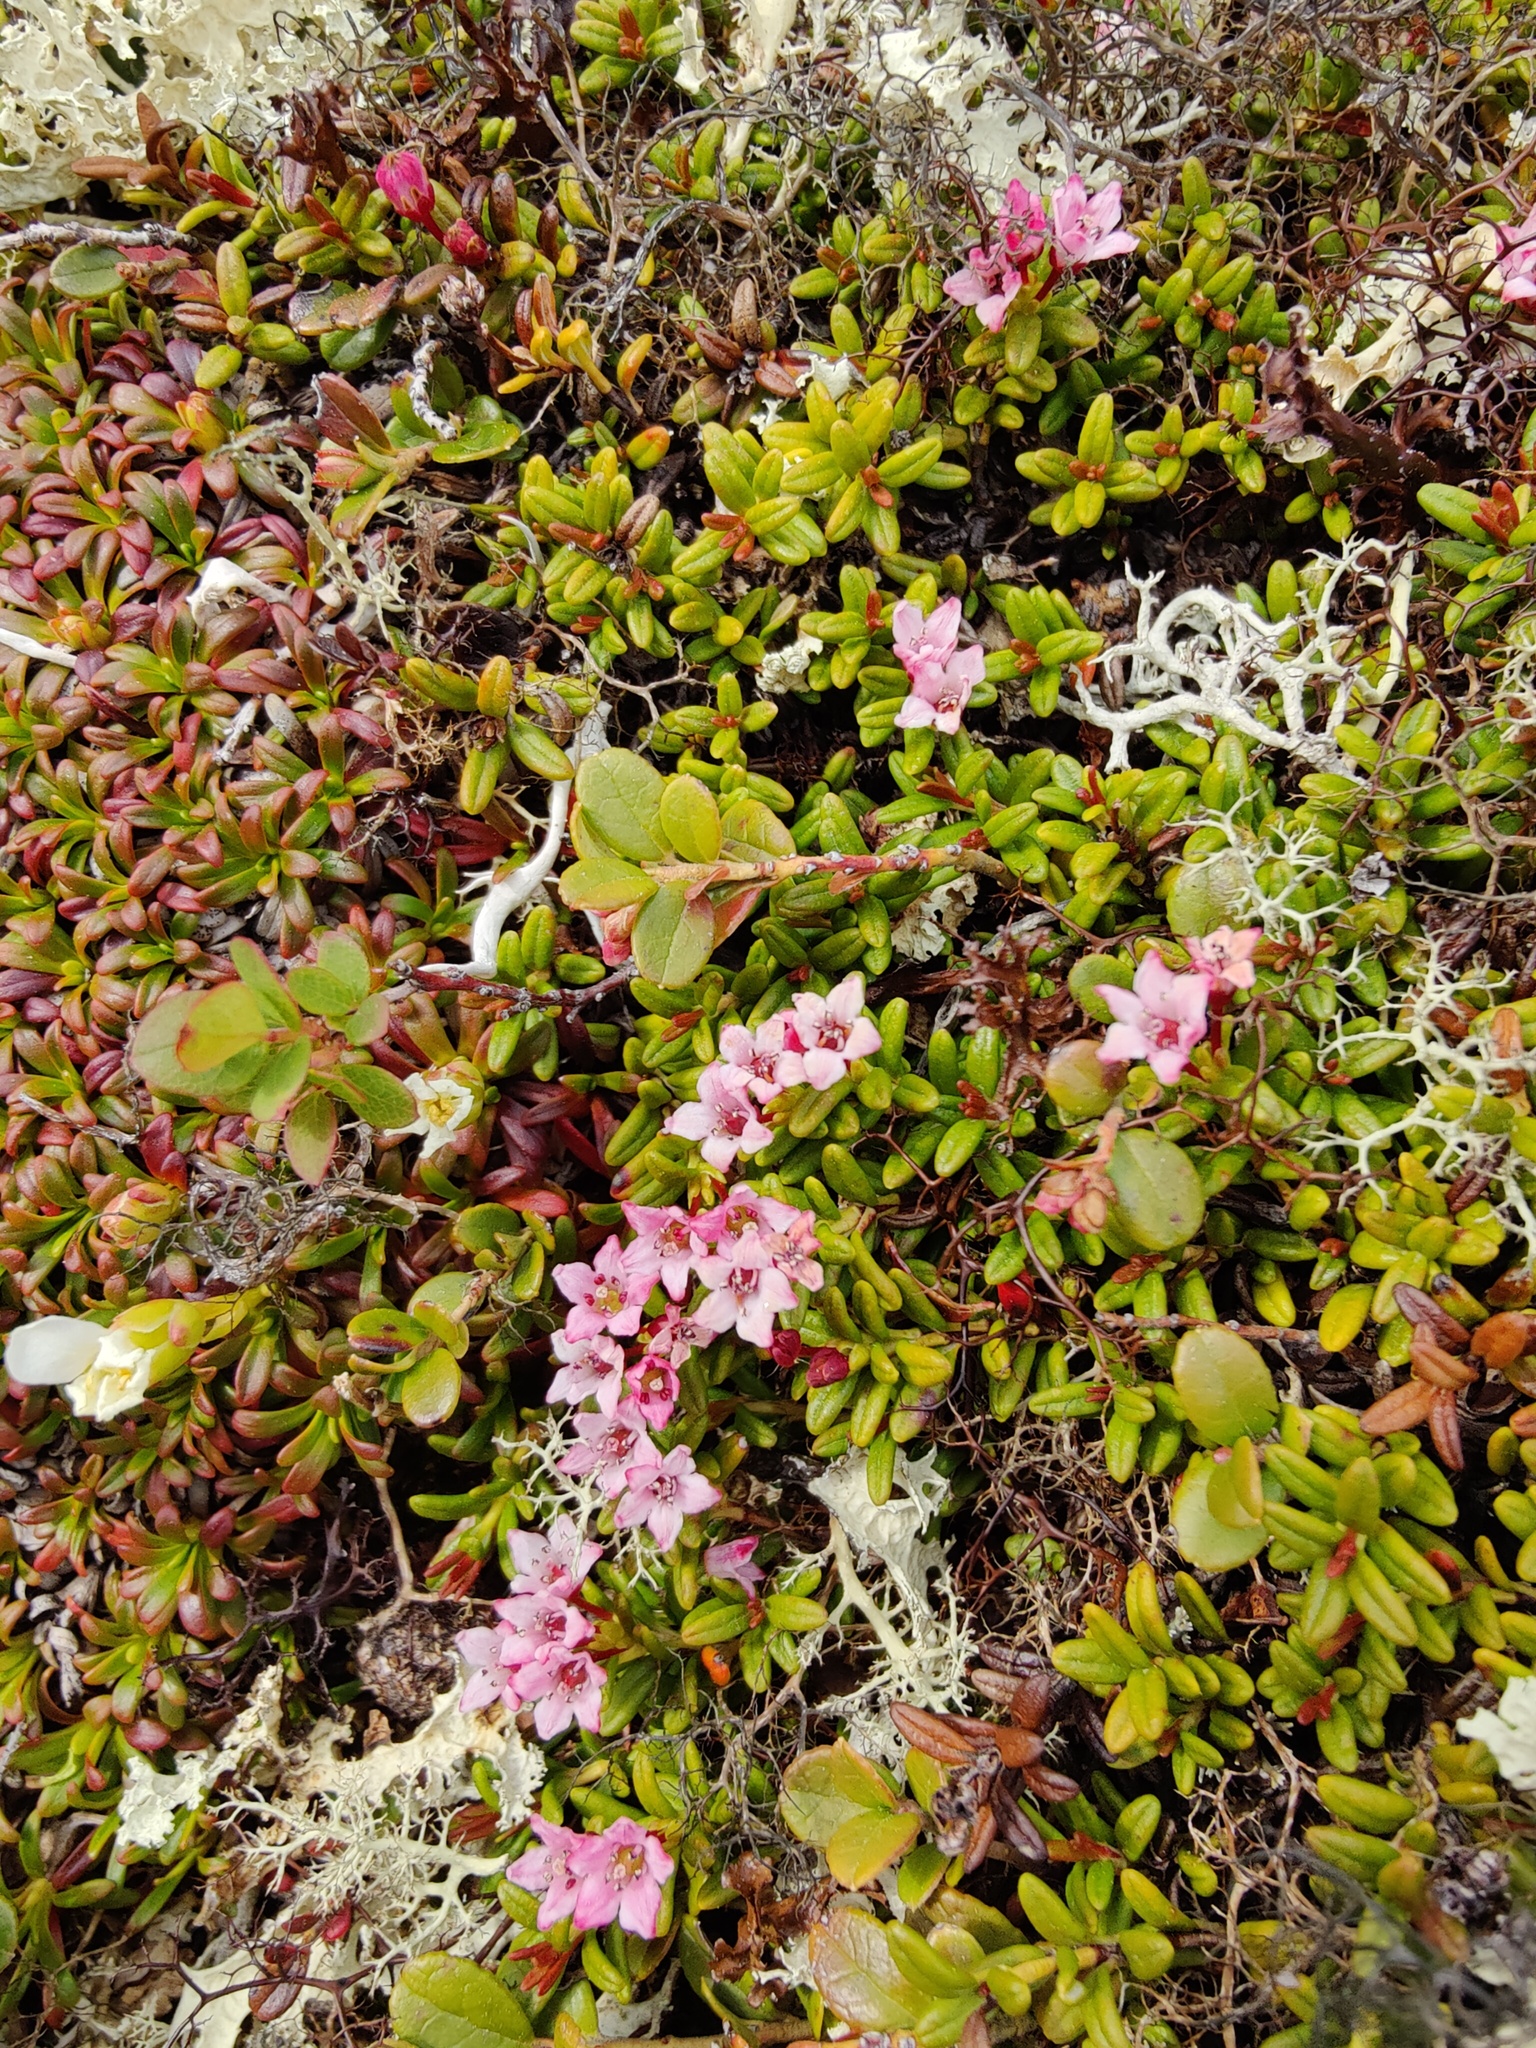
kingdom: Plantae
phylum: Tracheophyta
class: Magnoliopsida
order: Ericales
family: Ericaceae
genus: Kalmia
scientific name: Kalmia procumbens
